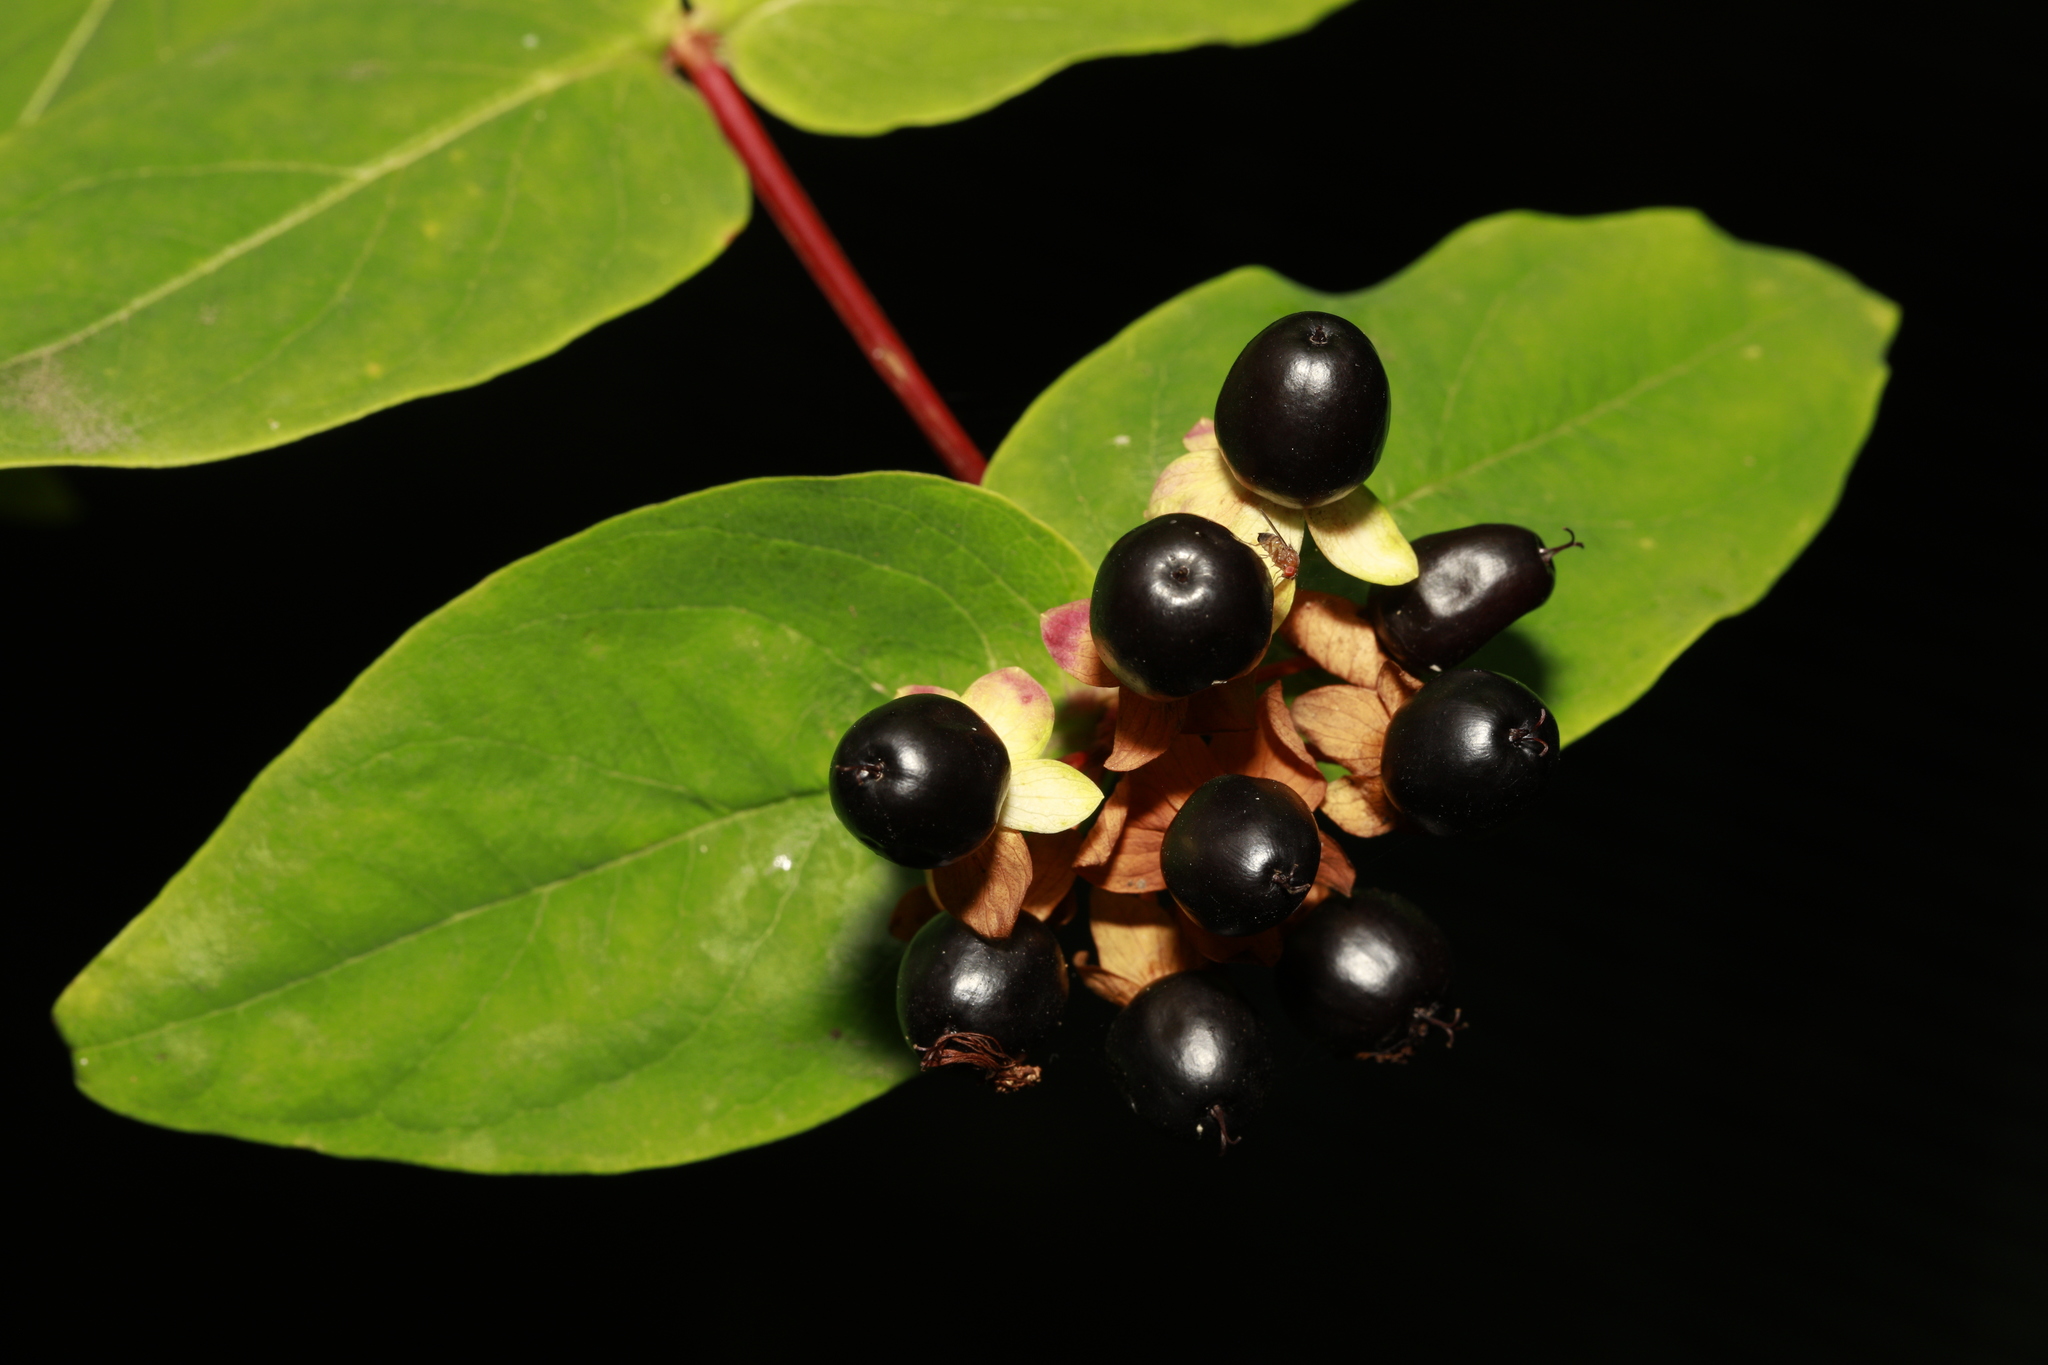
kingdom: Plantae
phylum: Tracheophyta
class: Magnoliopsida
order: Malpighiales
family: Hypericaceae
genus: Hypericum
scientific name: Hypericum androsaemum
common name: Sweet-amber
